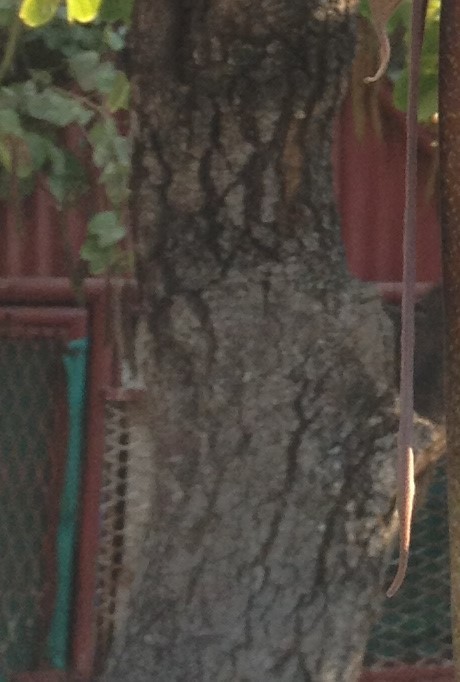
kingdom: Plantae
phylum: Tracheophyta
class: Magnoliopsida
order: Fabales
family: Fabaceae
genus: Bauhinia
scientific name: Bauhinia monandra
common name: Napoleon's plume
